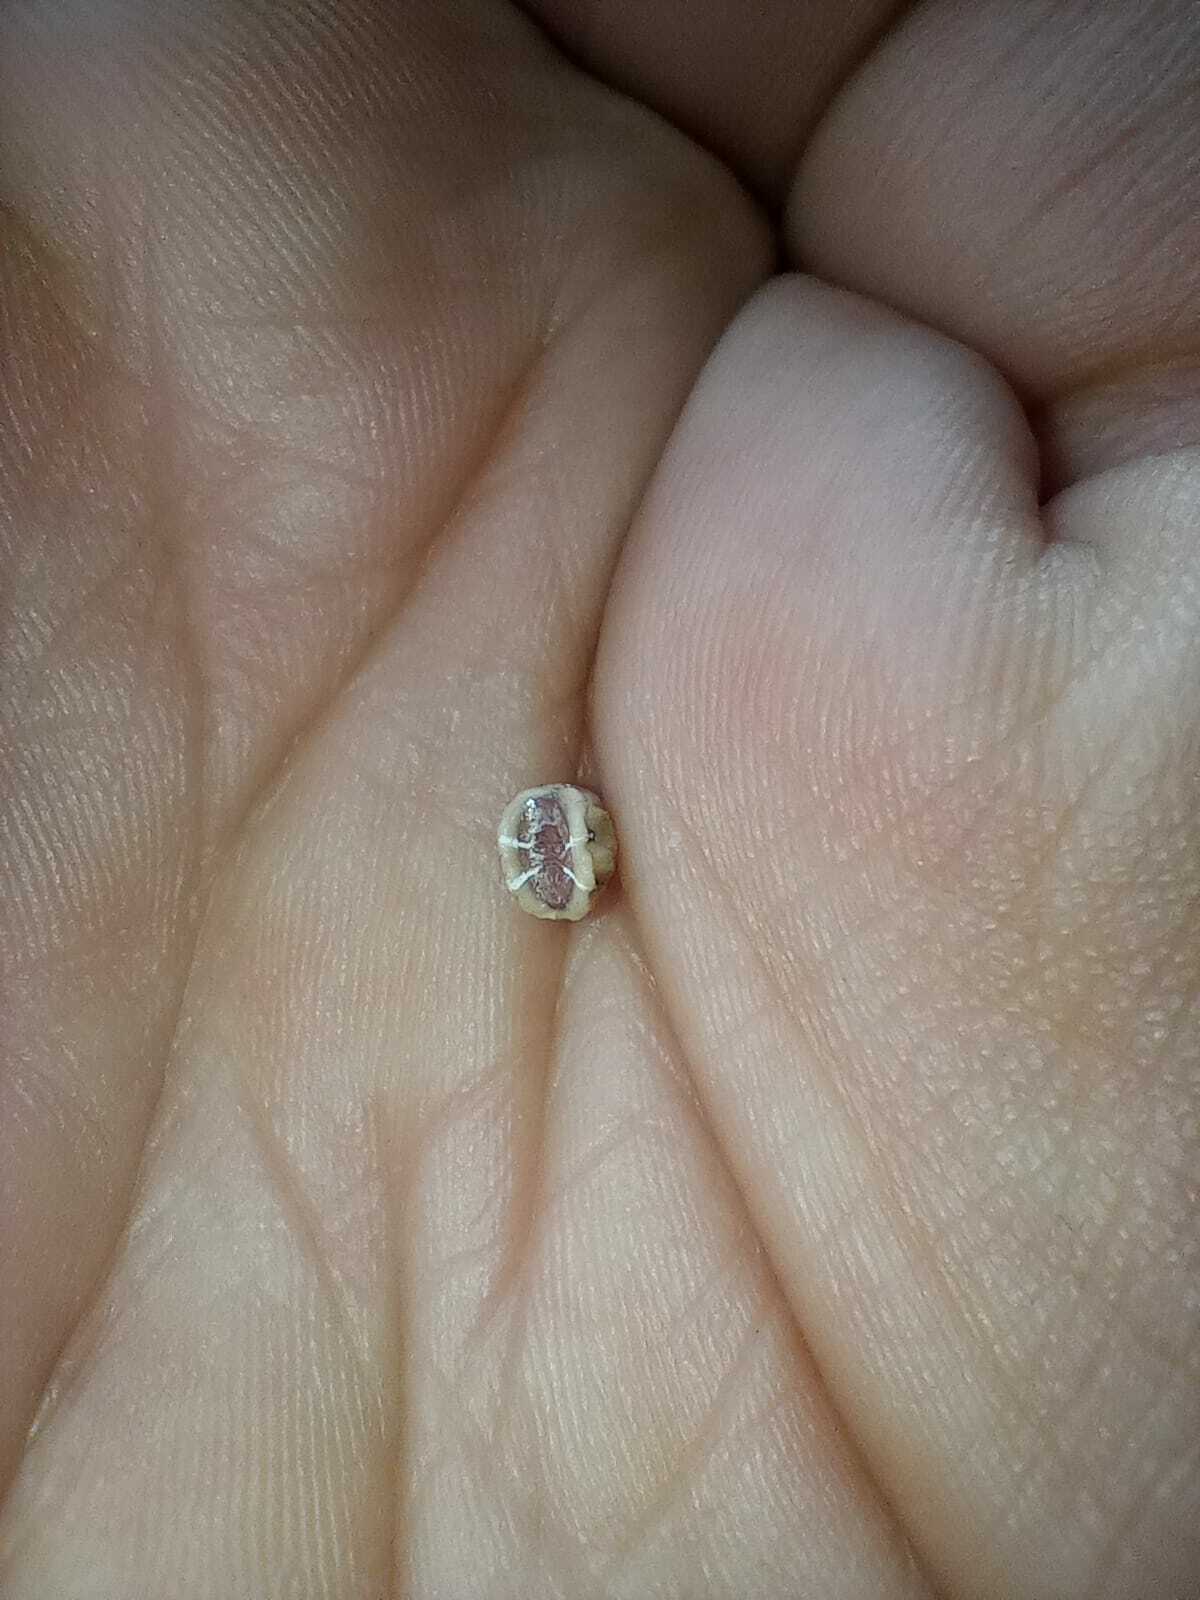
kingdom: Animalia
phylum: Arthropoda
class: Insecta
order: Hemiptera
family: Coccidae
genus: Ceroplastes
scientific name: Ceroplastes sinensis
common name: Hard wax scale
